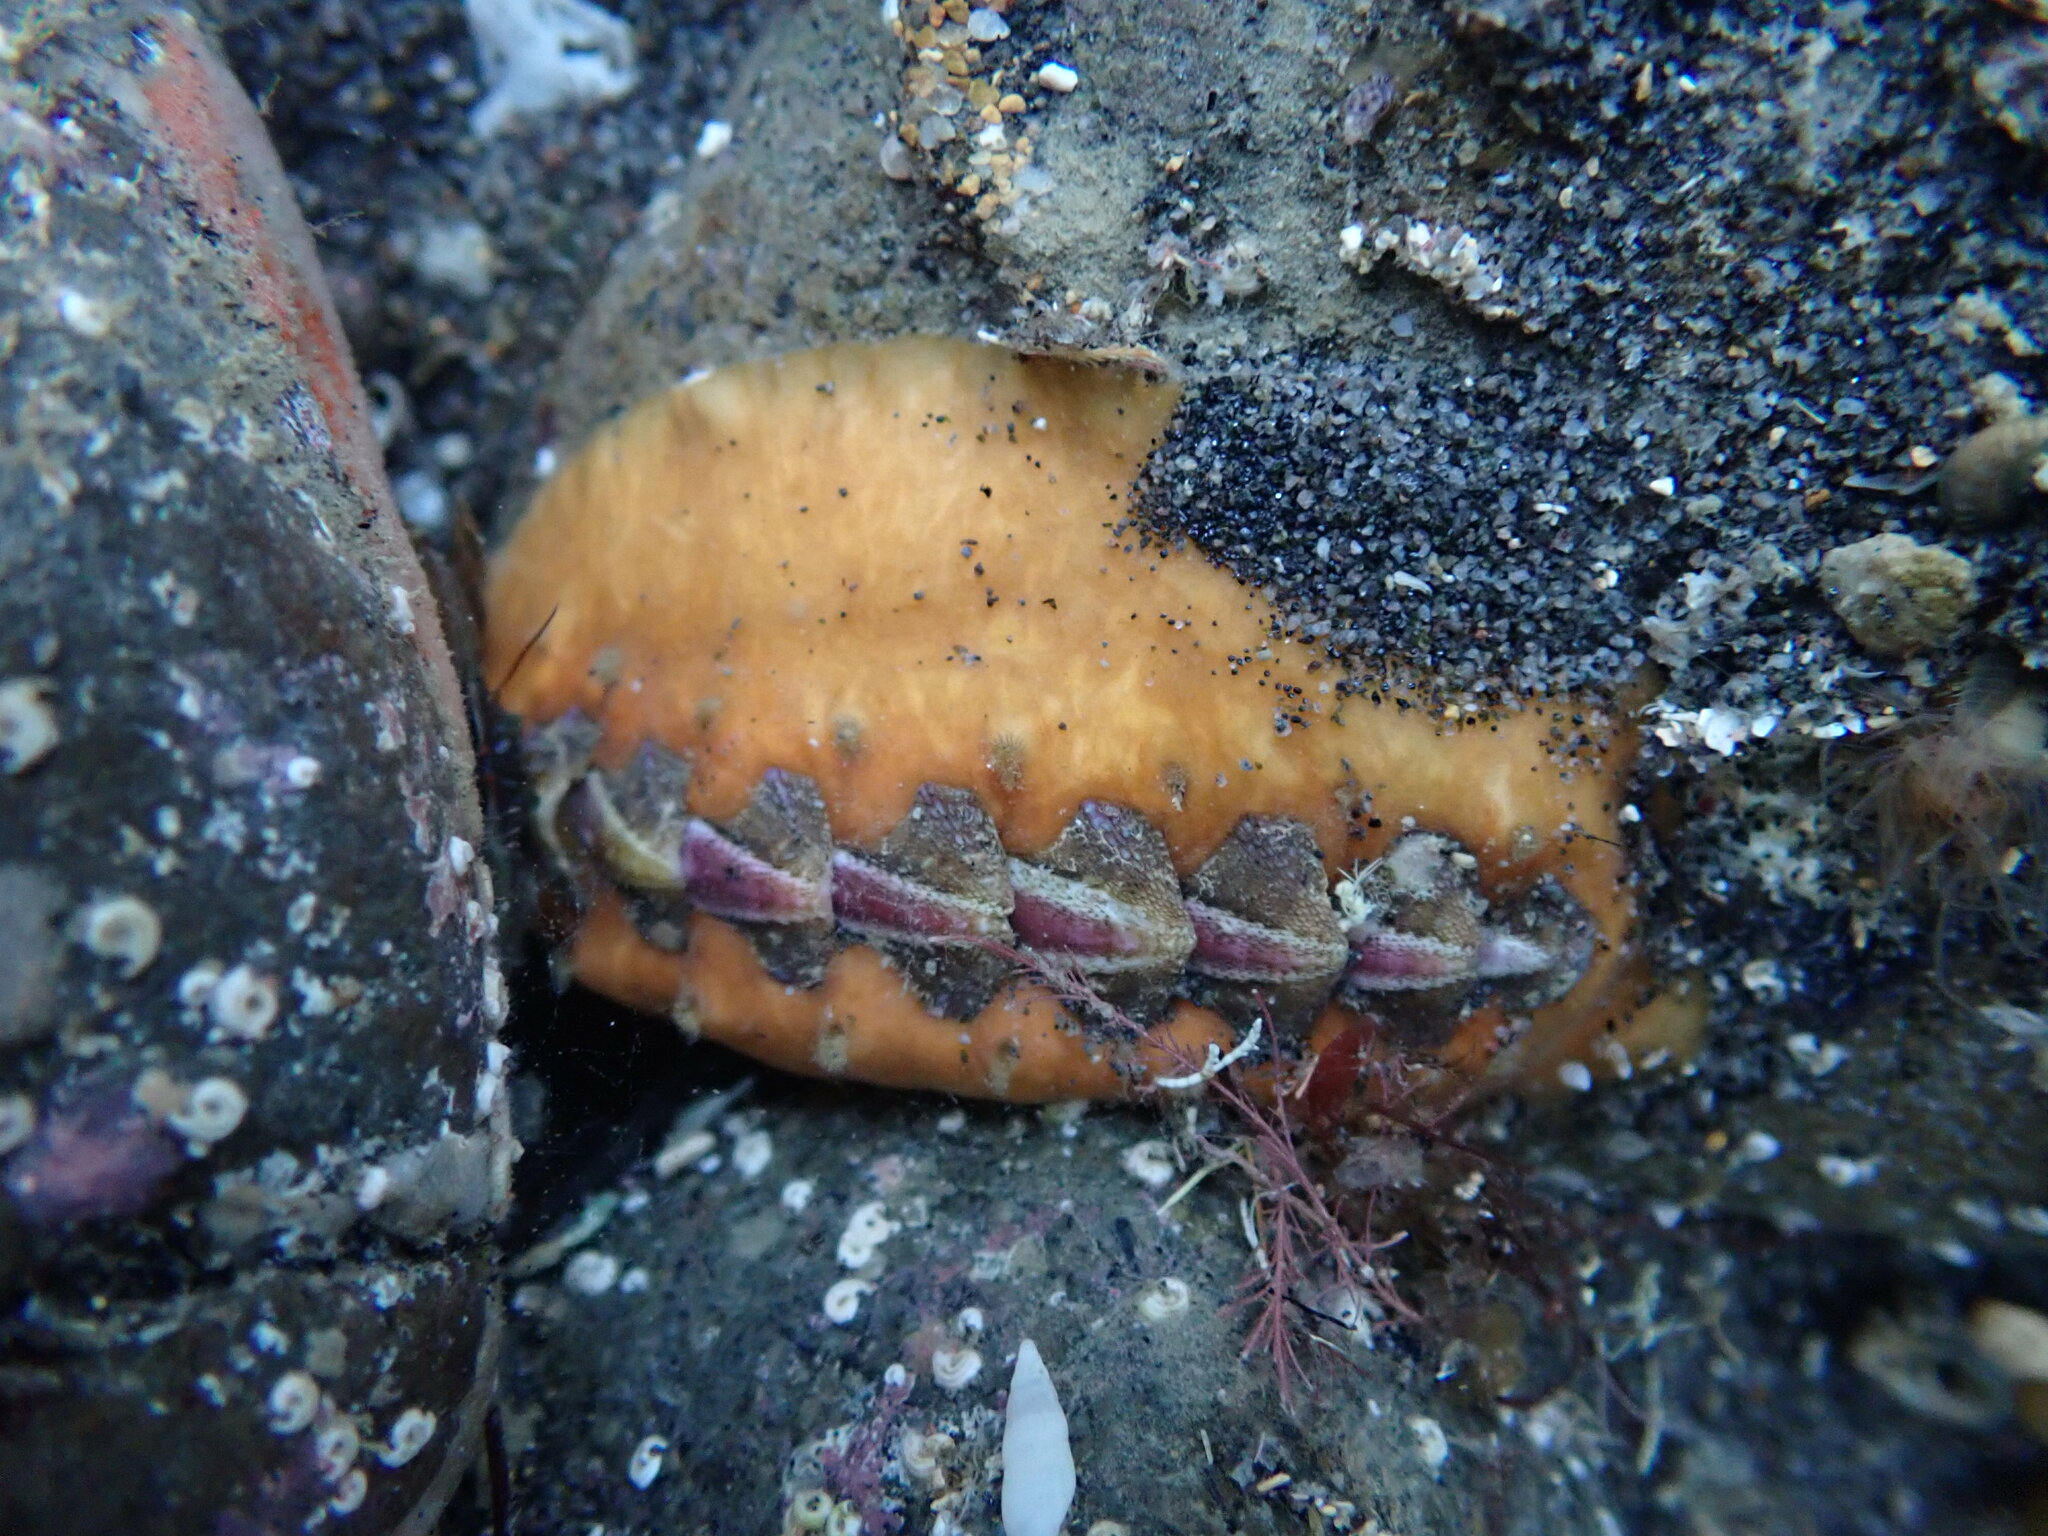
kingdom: Animalia
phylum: Mollusca
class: Polyplacophora
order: Chitonida
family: Acanthochitonidae
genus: Notoplax
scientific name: Notoplax violacea
